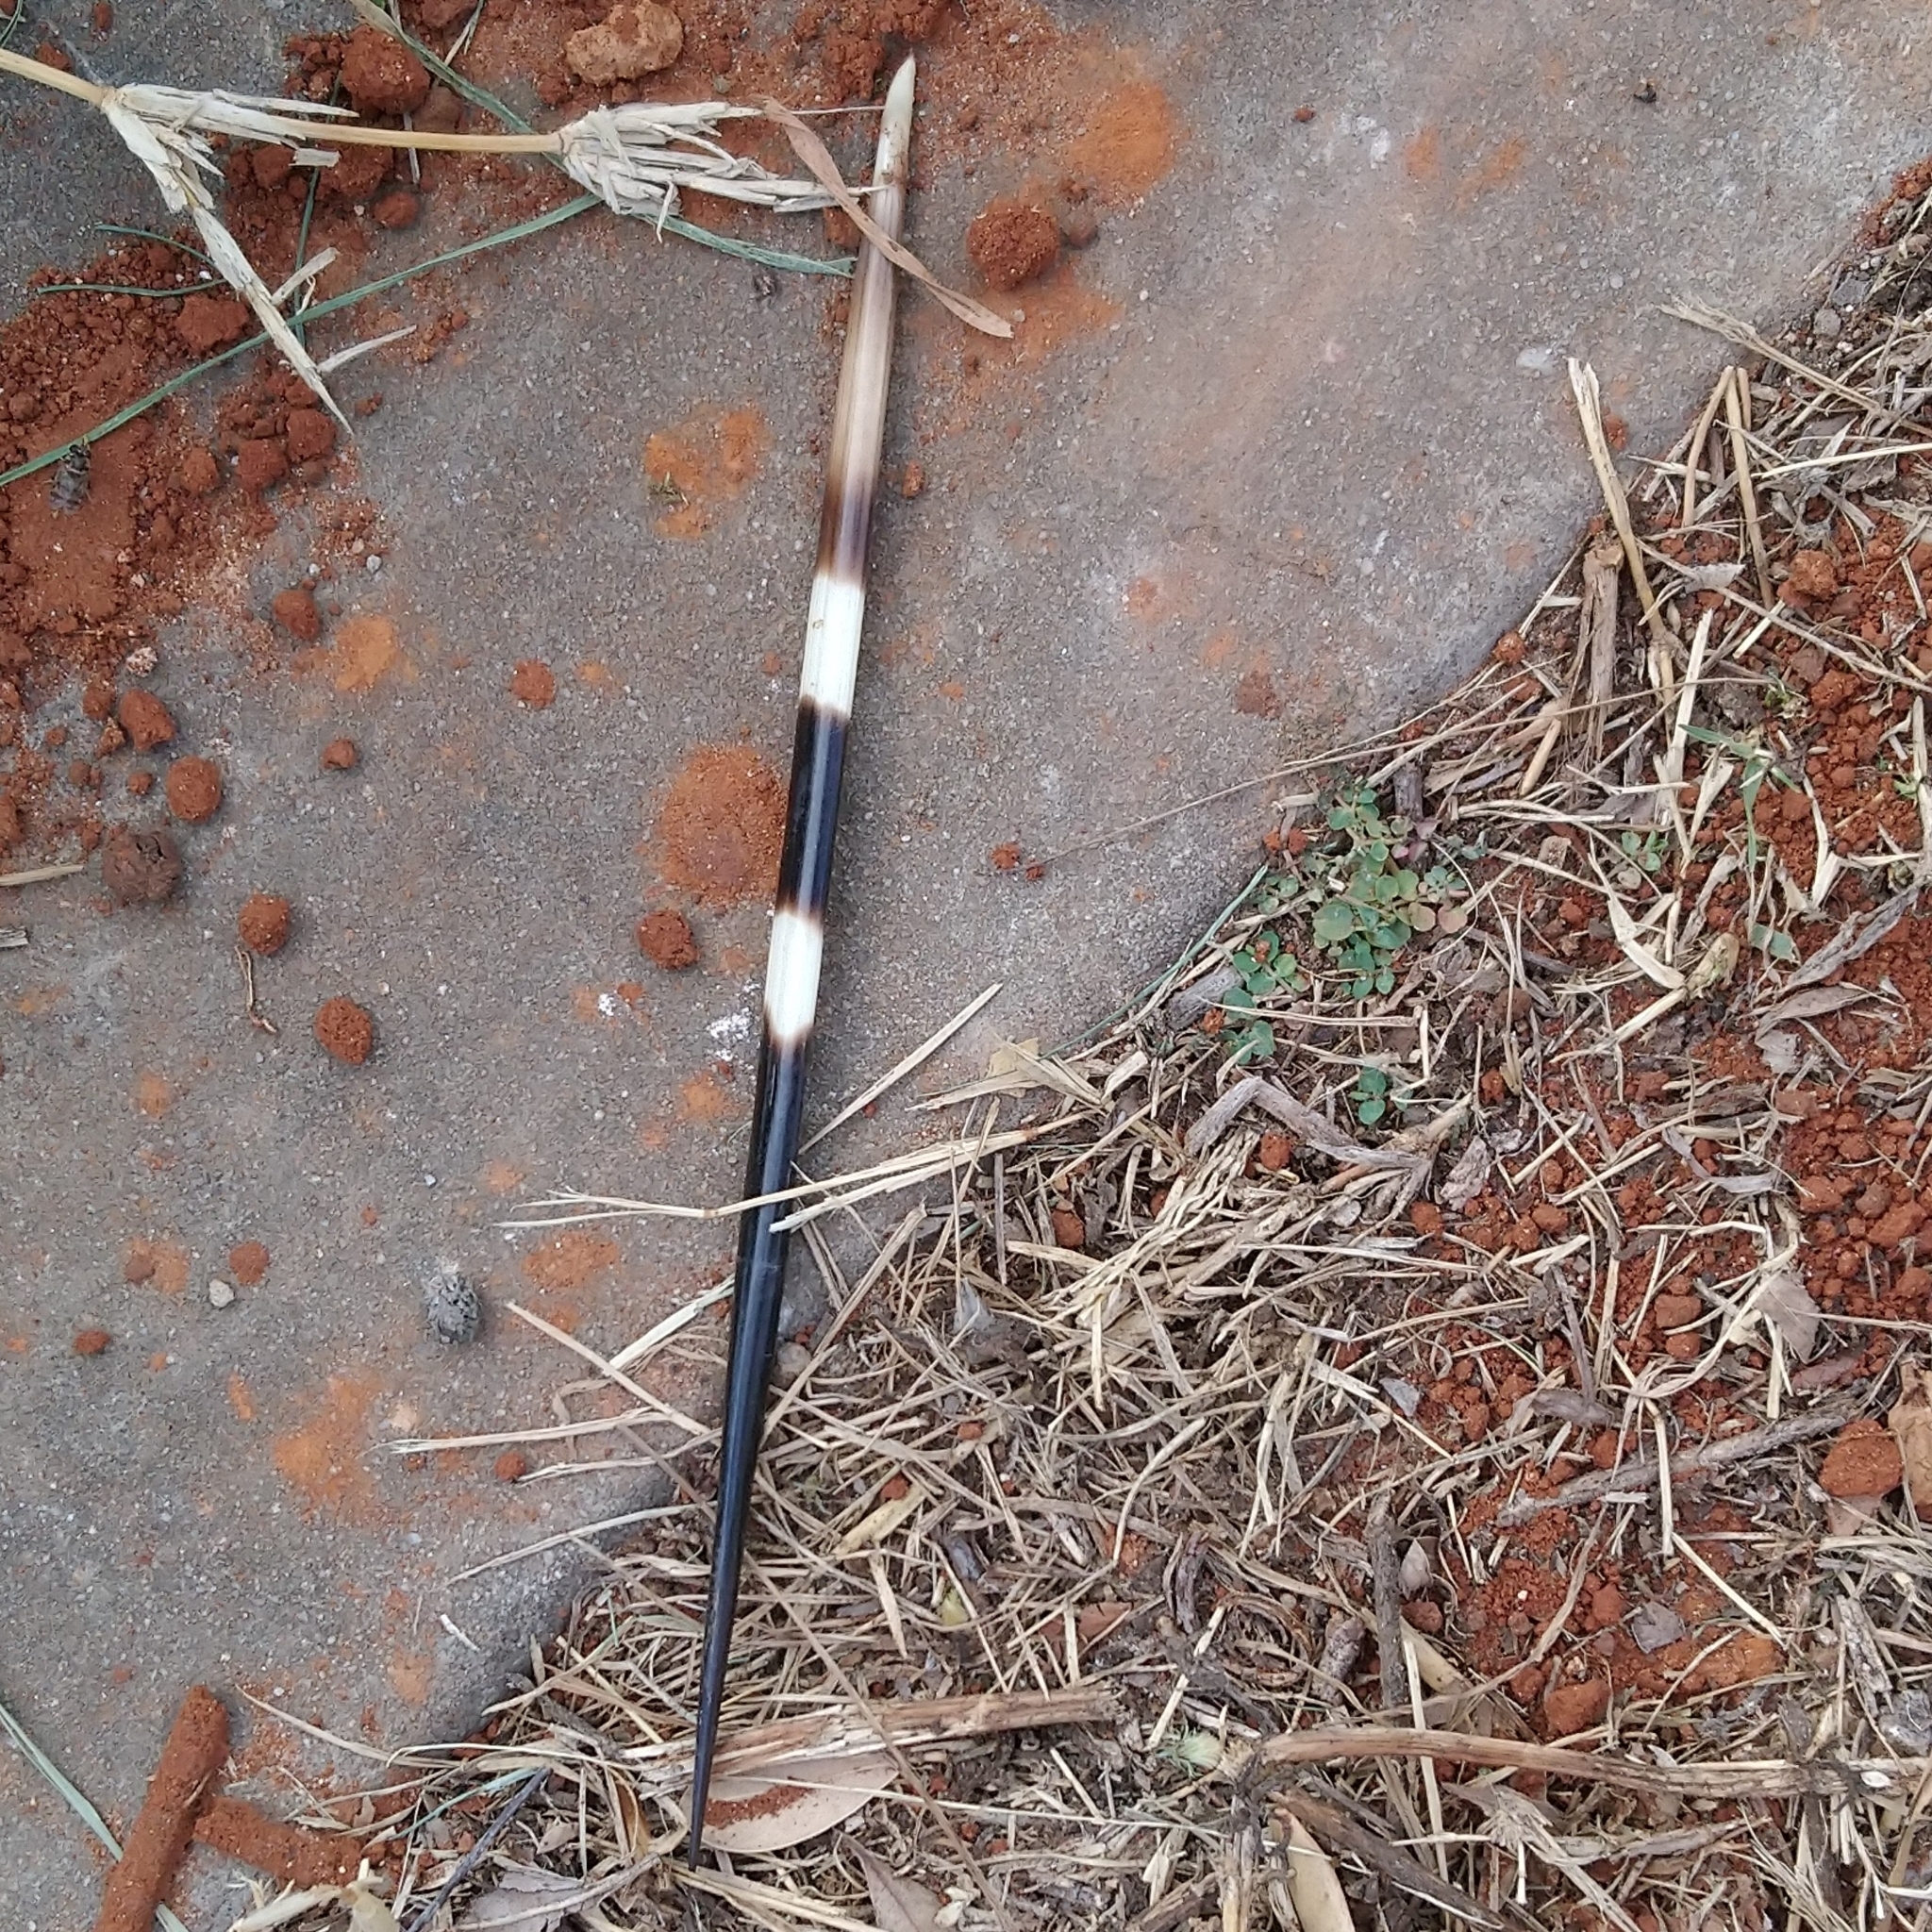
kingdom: Animalia
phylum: Chordata
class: Mammalia
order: Rodentia
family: Hystricidae
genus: Hystrix
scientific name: Hystrix africaeaustralis
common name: Cape porcupine
